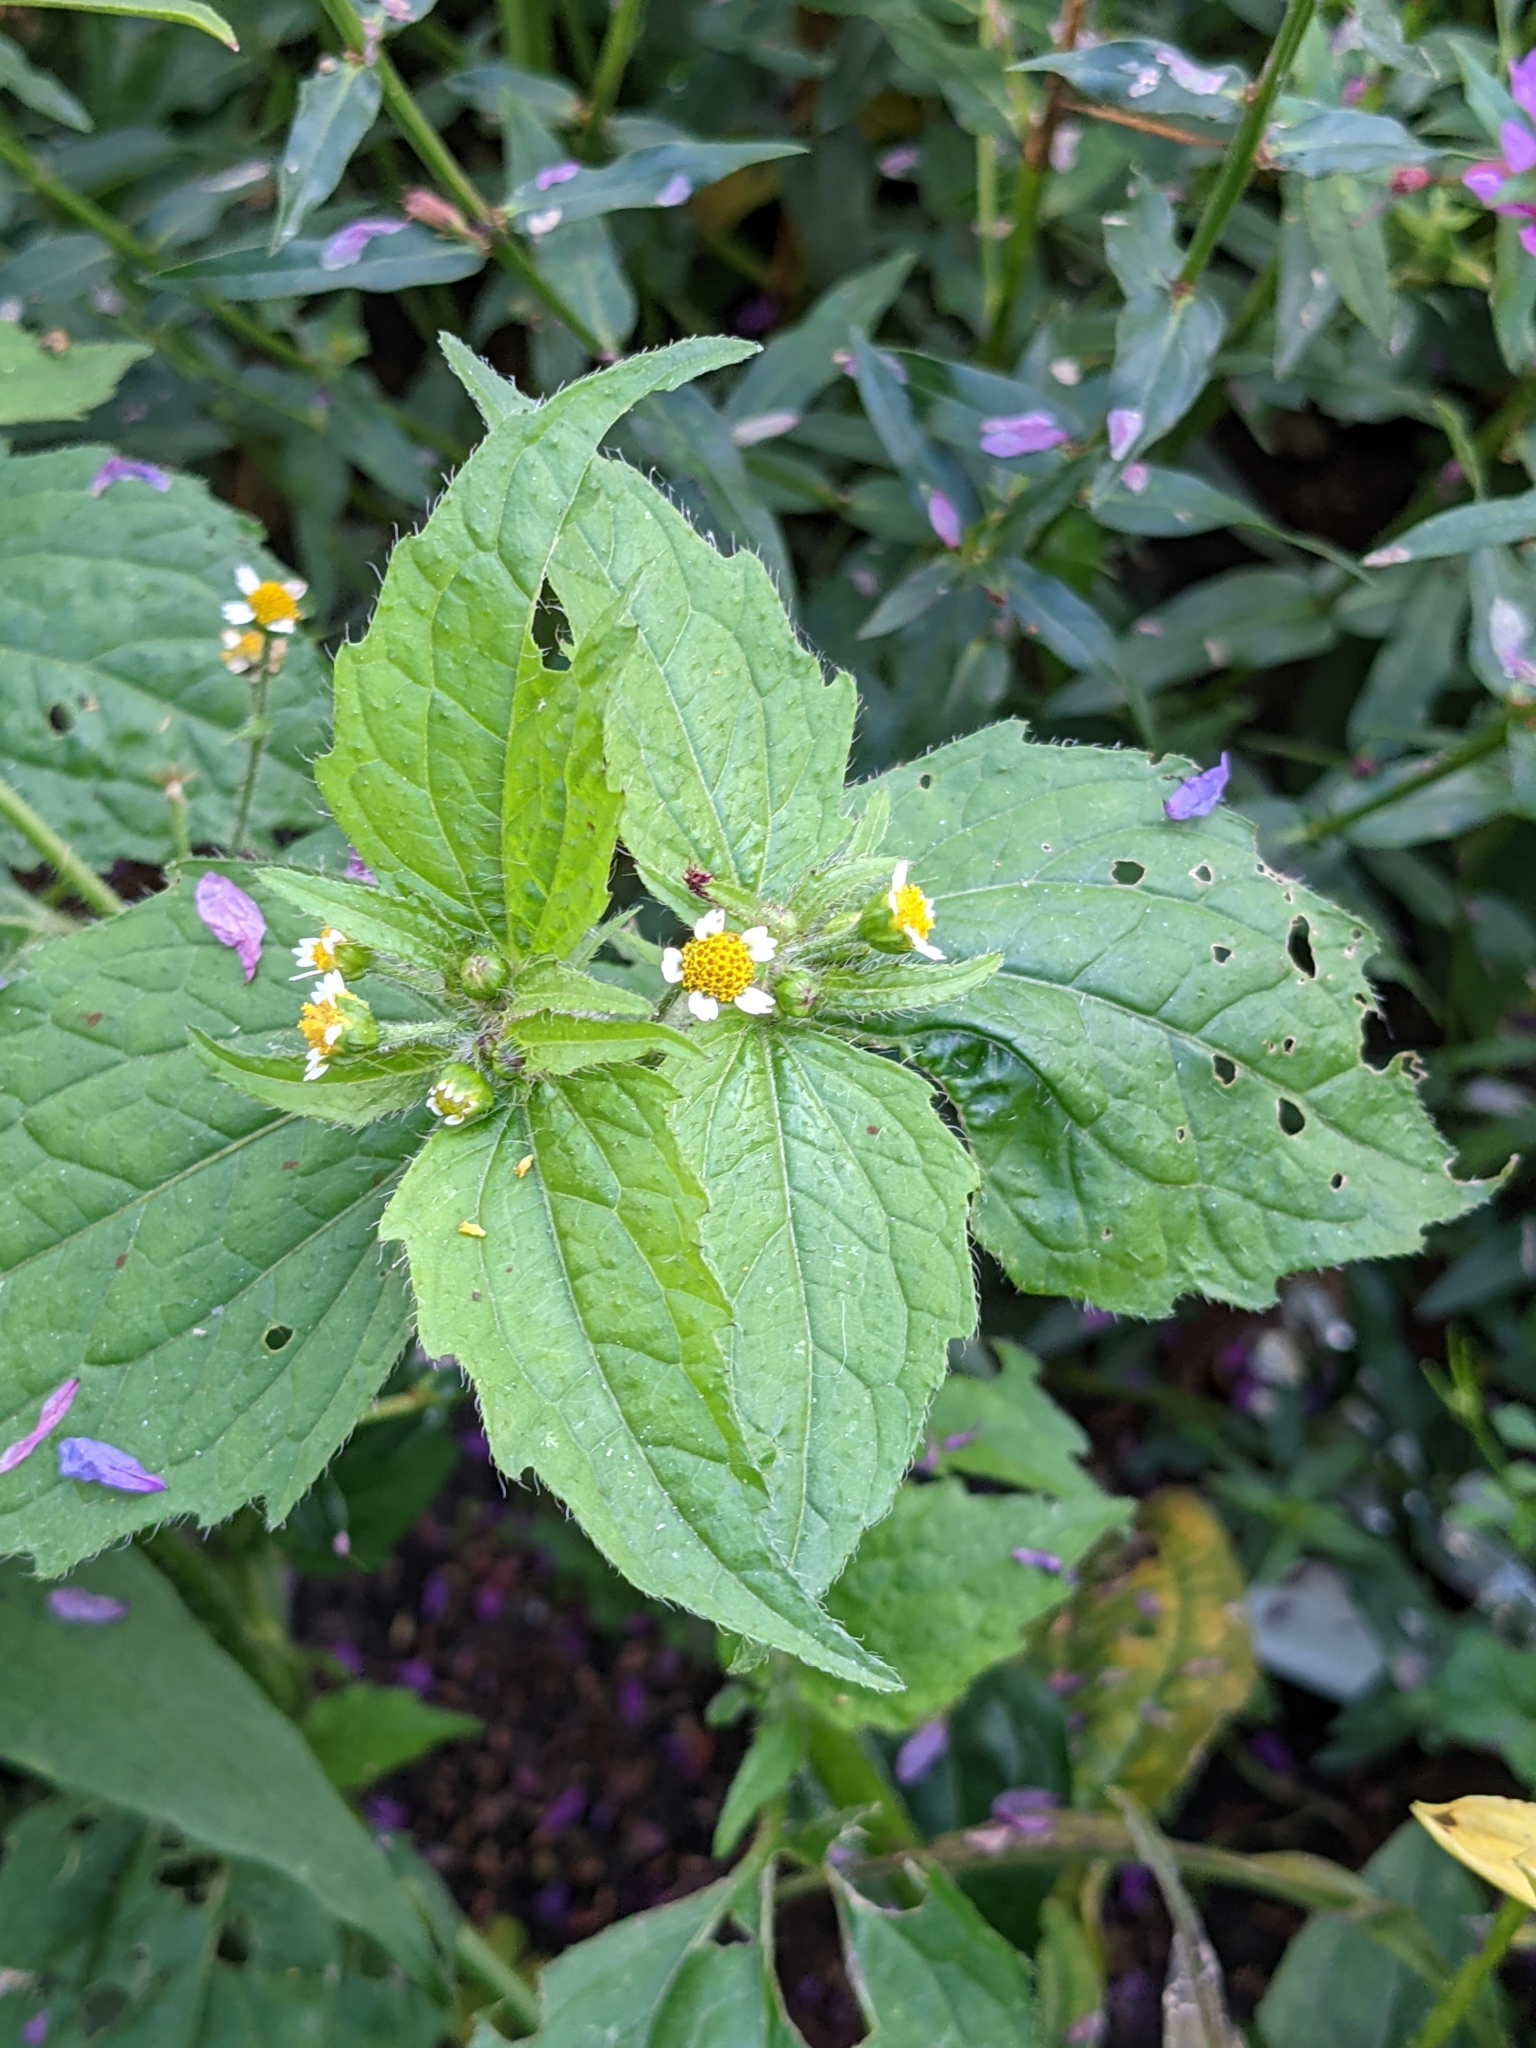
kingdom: Plantae
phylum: Tracheophyta
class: Magnoliopsida
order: Asterales
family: Asteraceae
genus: Galinsoga
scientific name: Galinsoga quadriradiata
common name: Shaggy soldier
